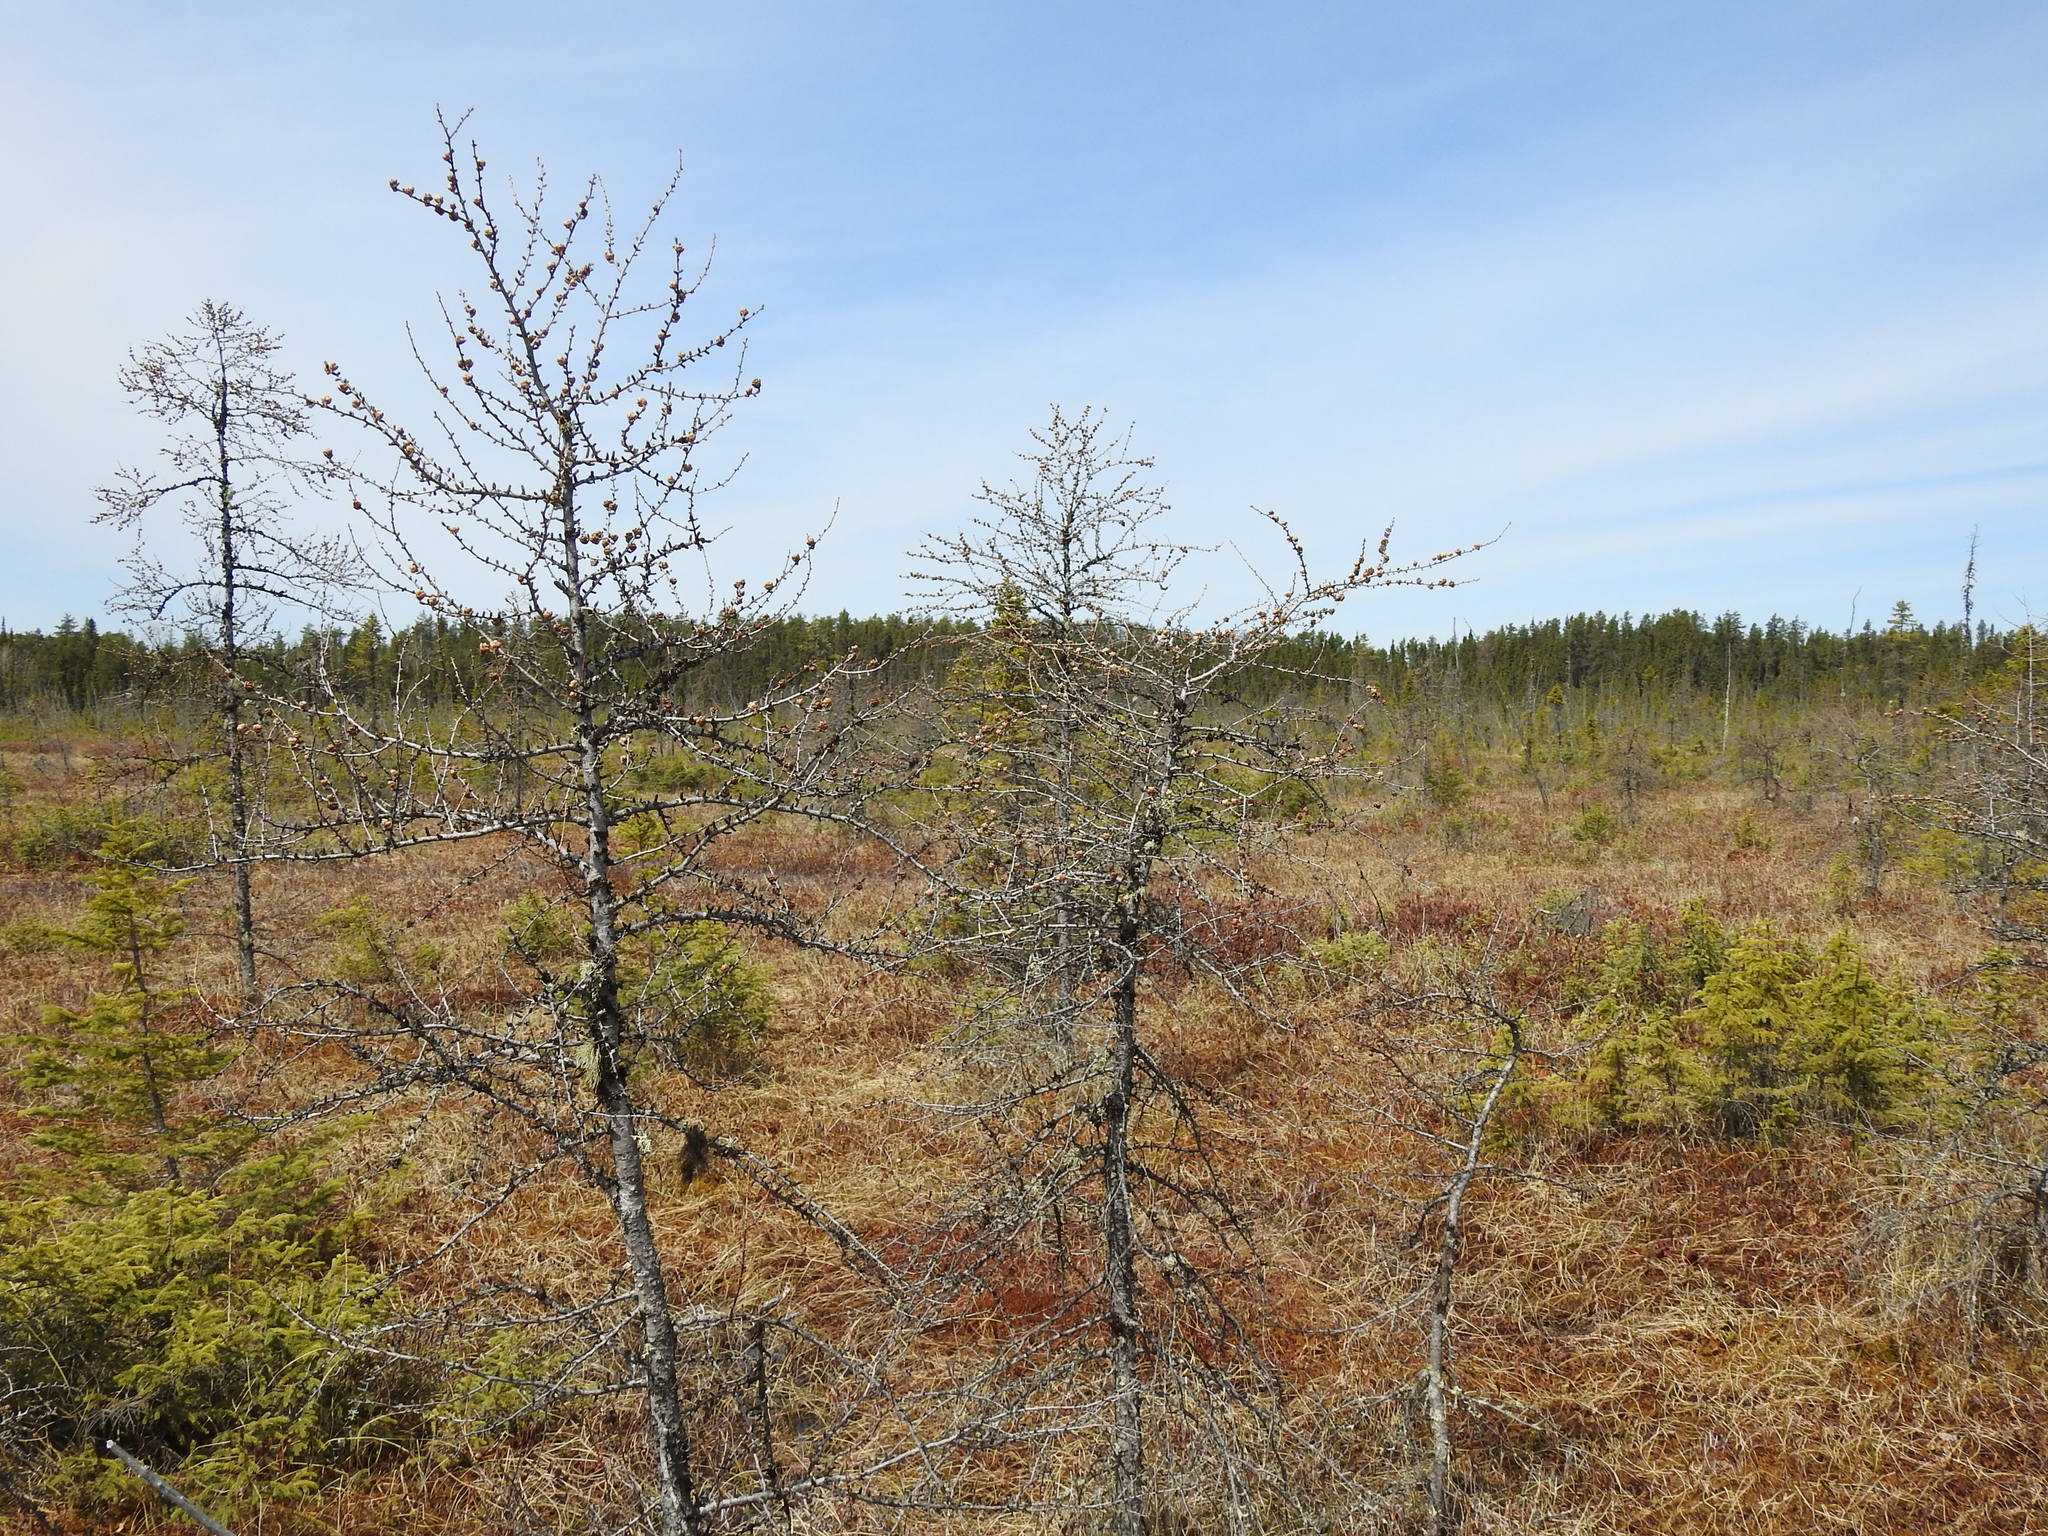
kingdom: Plantae
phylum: Tracheophyta
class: Pinopsida
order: Pinales
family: Pinaceae
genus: Larix
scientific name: Larix laricina
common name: American larch
